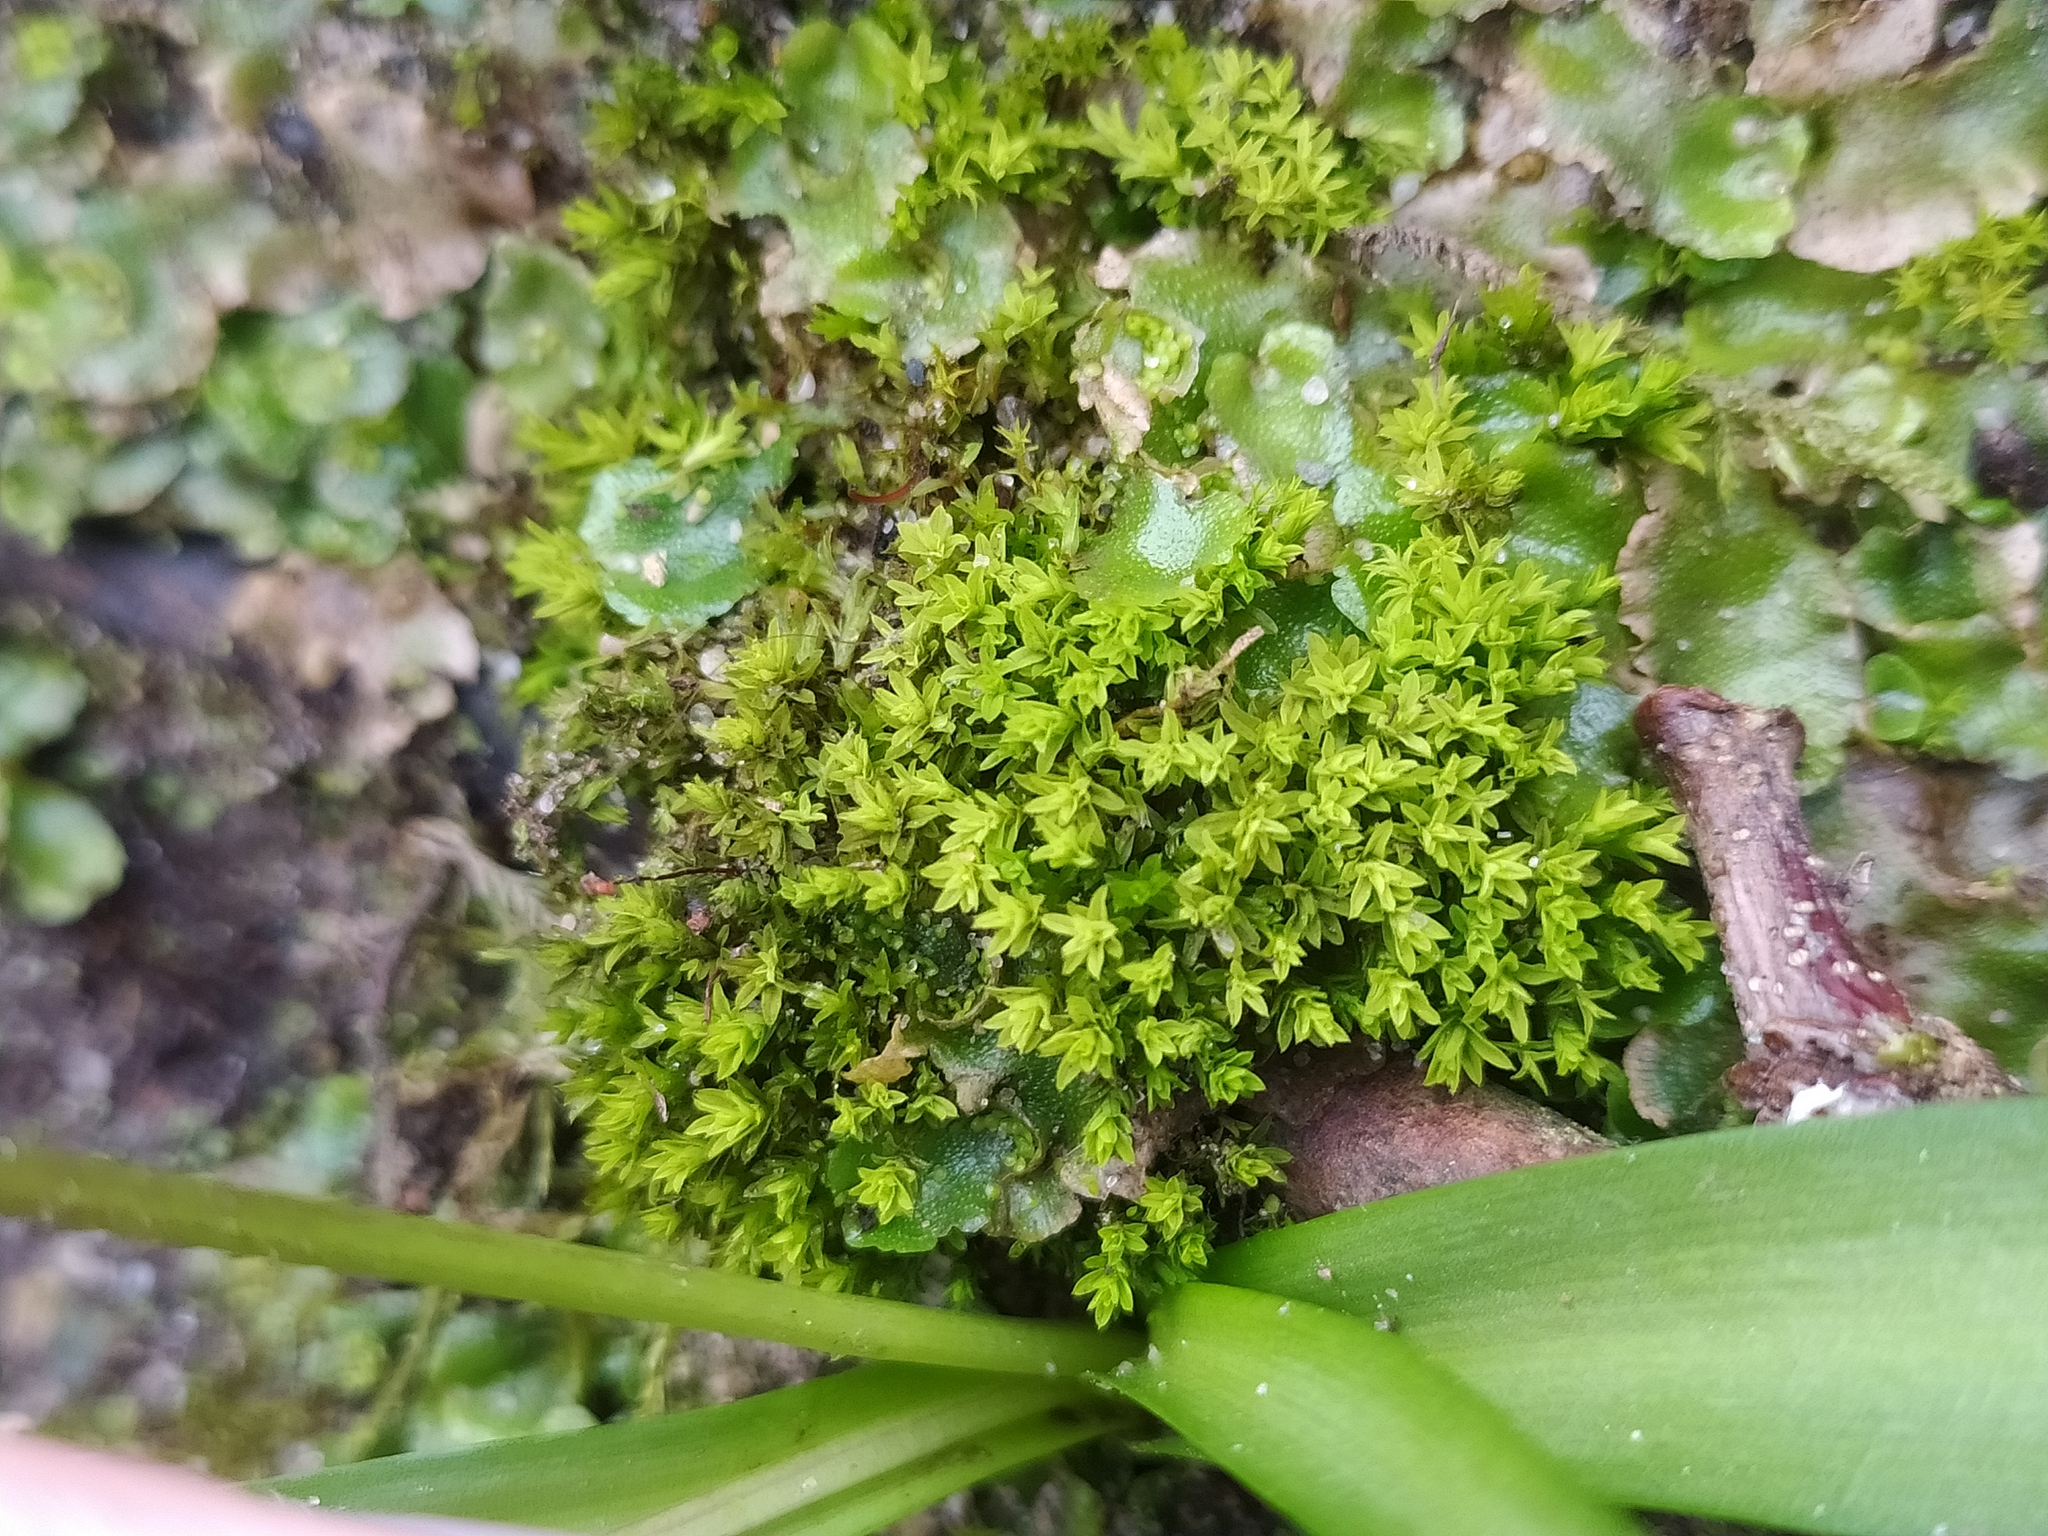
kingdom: Plantae
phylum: Bryophyta
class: Bryopsida
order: Pottiales
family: Pottiaceae
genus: Barbula
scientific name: Barbula unguiculata
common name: Prickly beard moss
